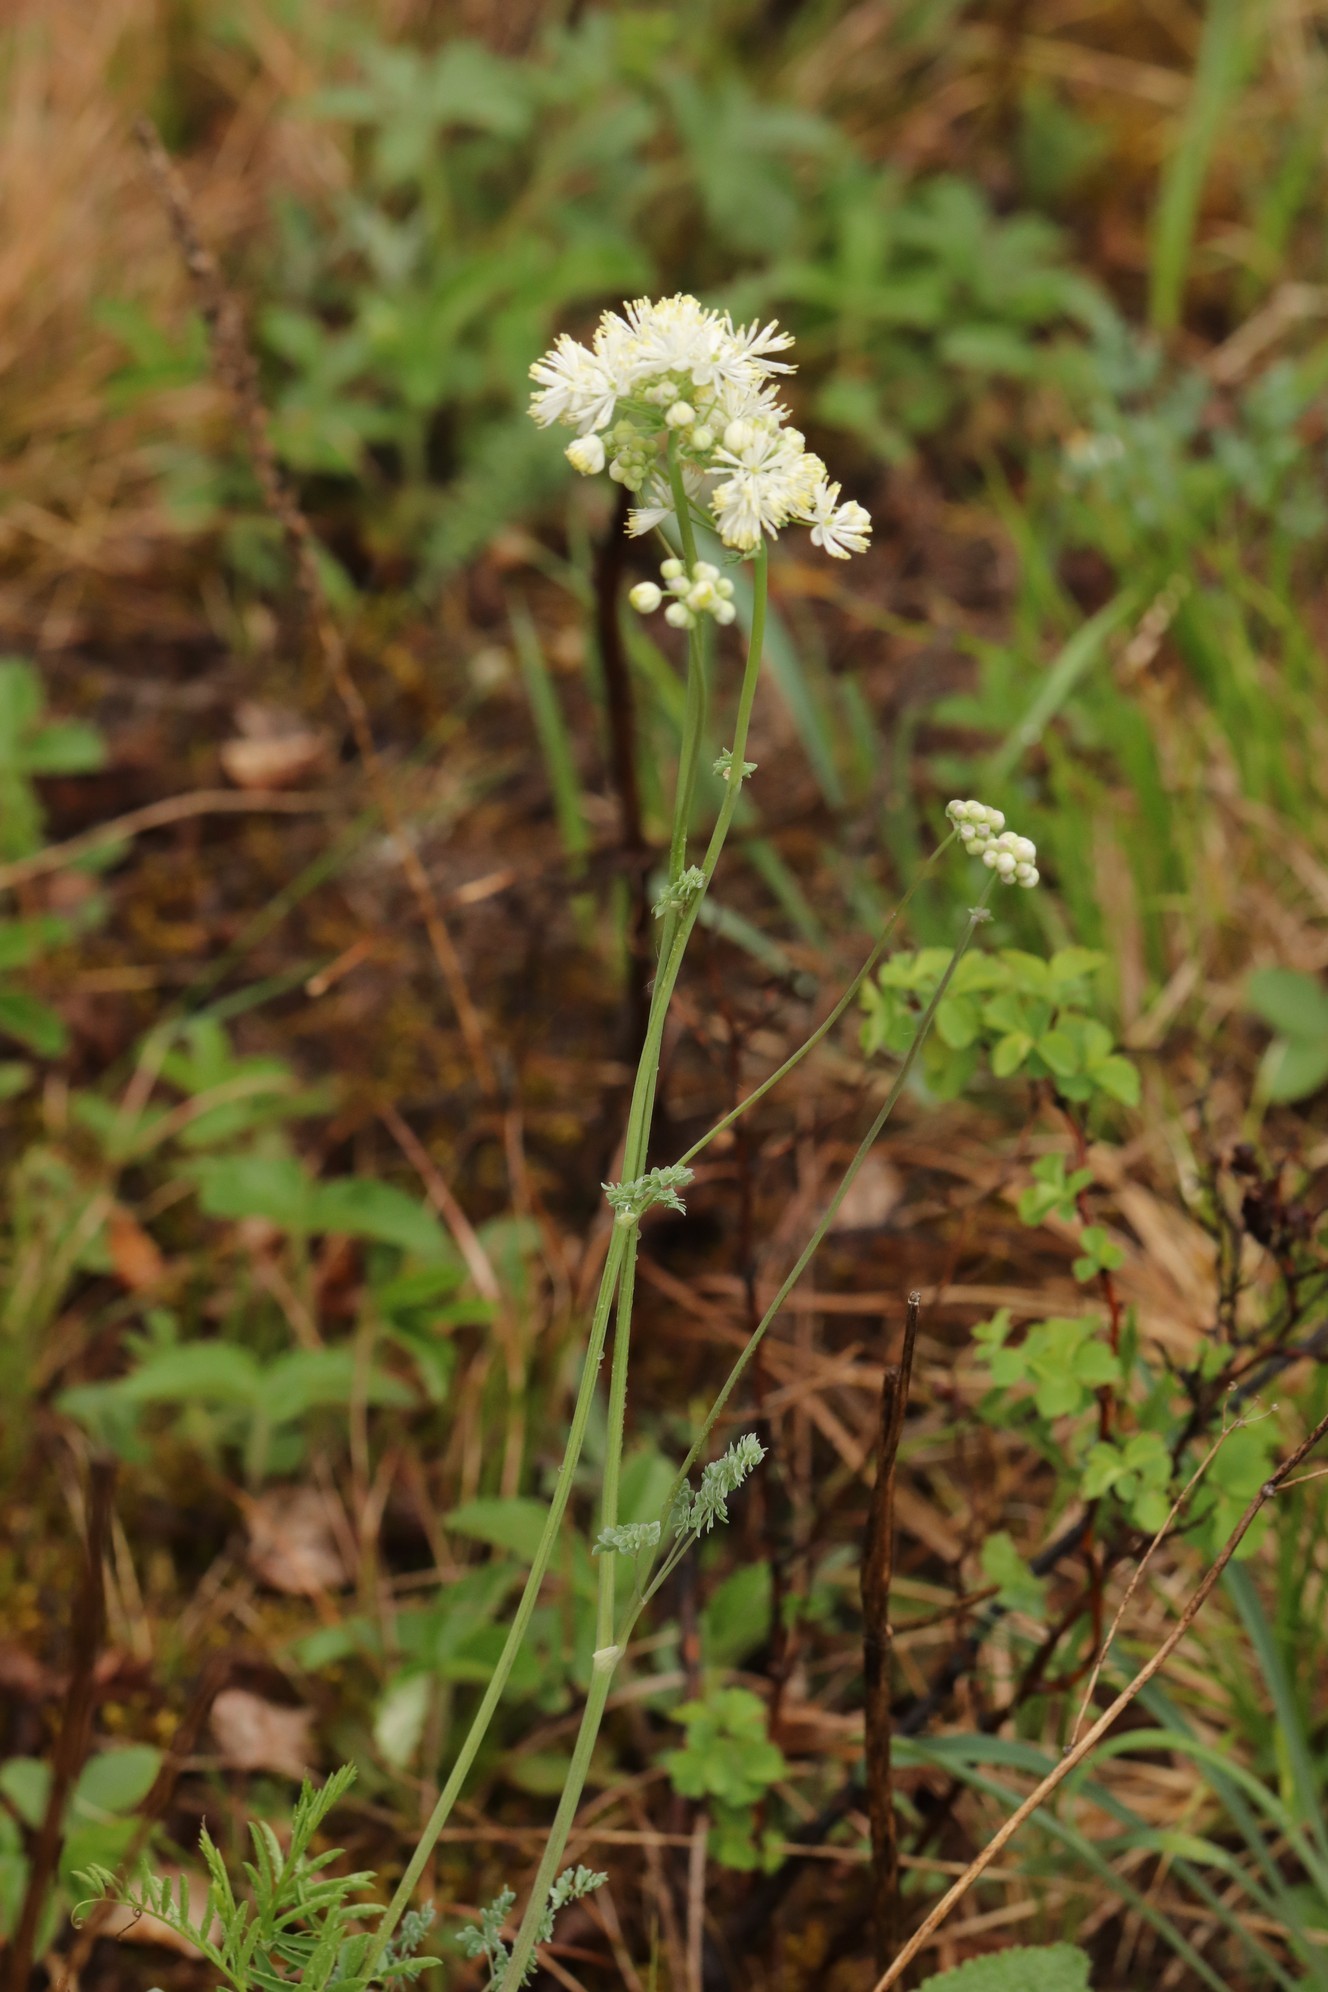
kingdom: Plantae
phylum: Tracheophyta
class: Magnoliopsida
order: Ranunculales
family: Ranunculaceae
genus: Thalictrum
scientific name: Thalictrum petaloideum
